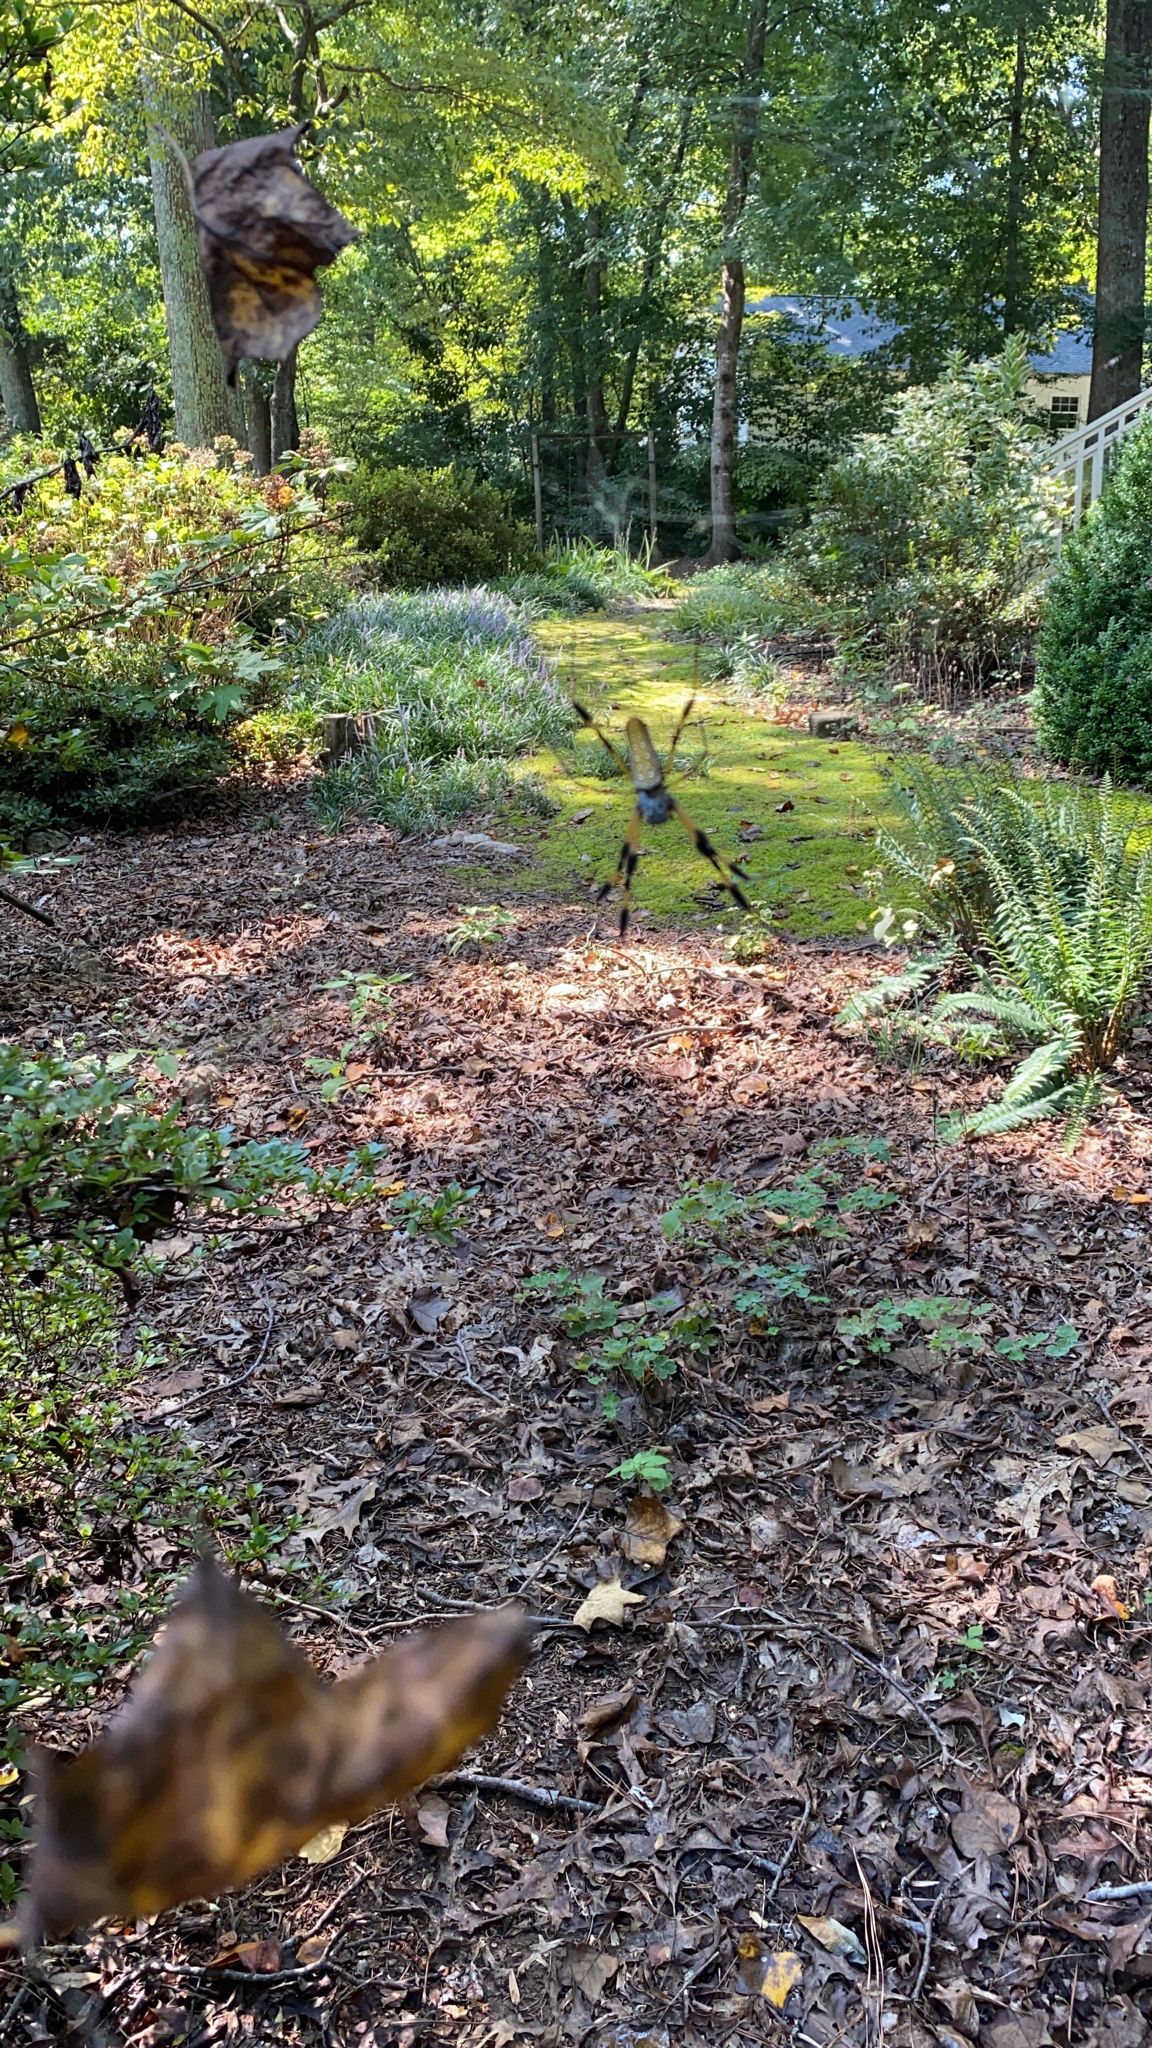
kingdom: Animalia
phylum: Arthropoda
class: Arachnida
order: Araneae
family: Araneidae
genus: Trichonephila
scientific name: Trichonephila clavipes
